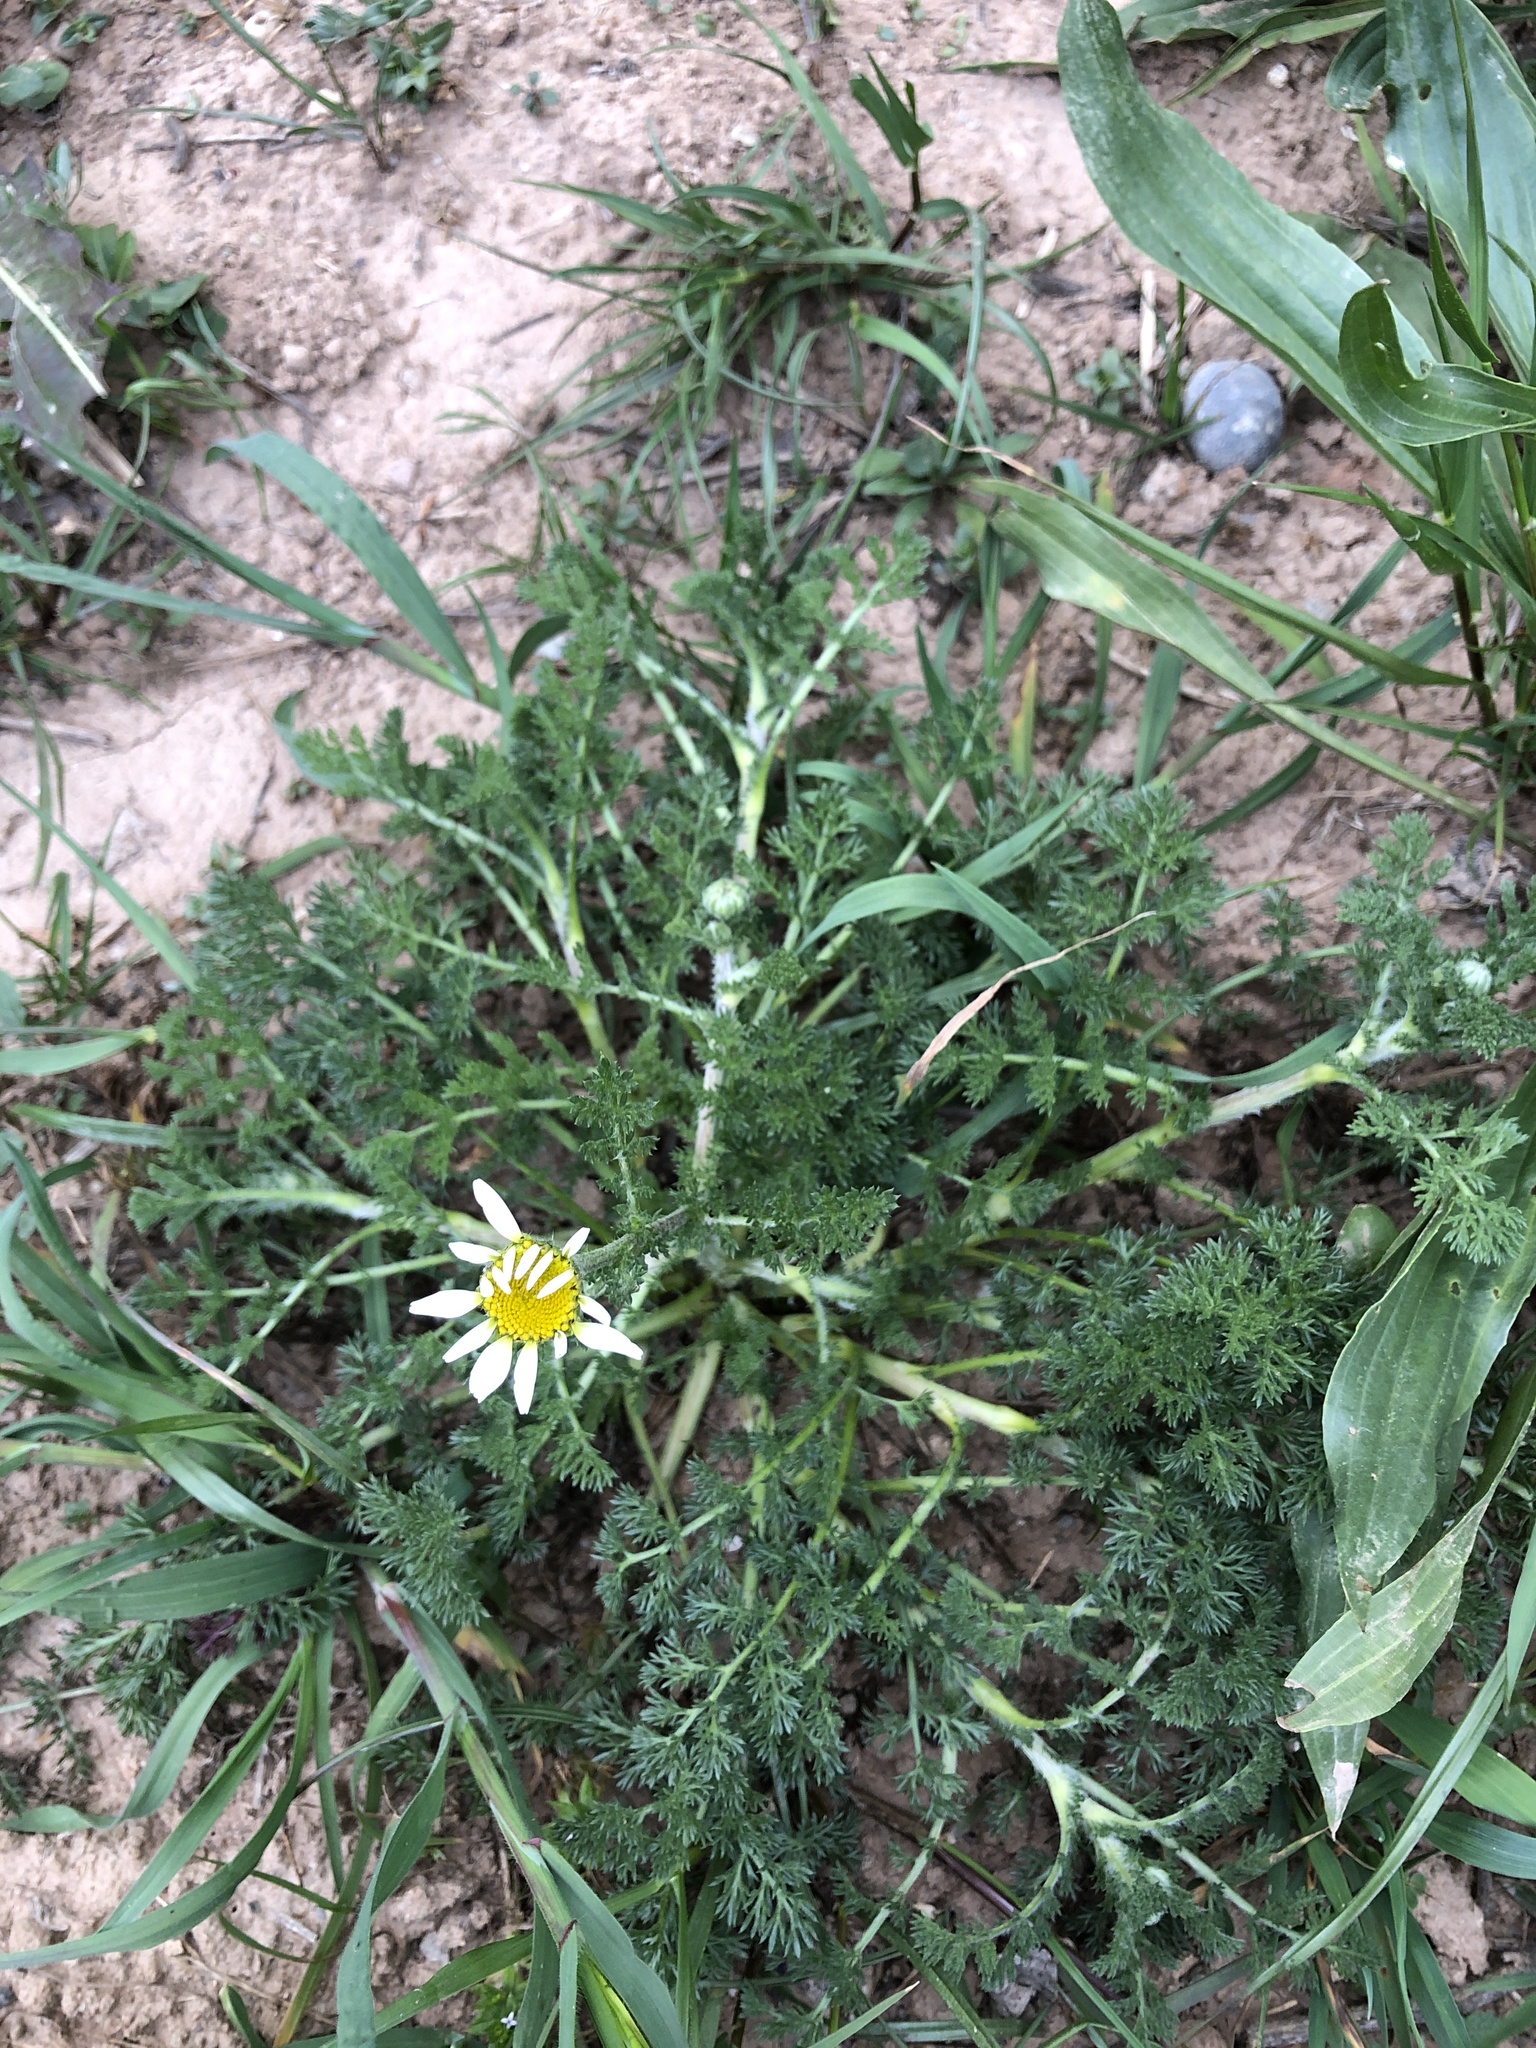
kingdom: Plantae
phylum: Tracheophyta
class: Magnoliopsida
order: Asterales
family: Asteraceae
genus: Anacyclus
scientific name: Anacyclus clavatus
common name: Whitebuttons
